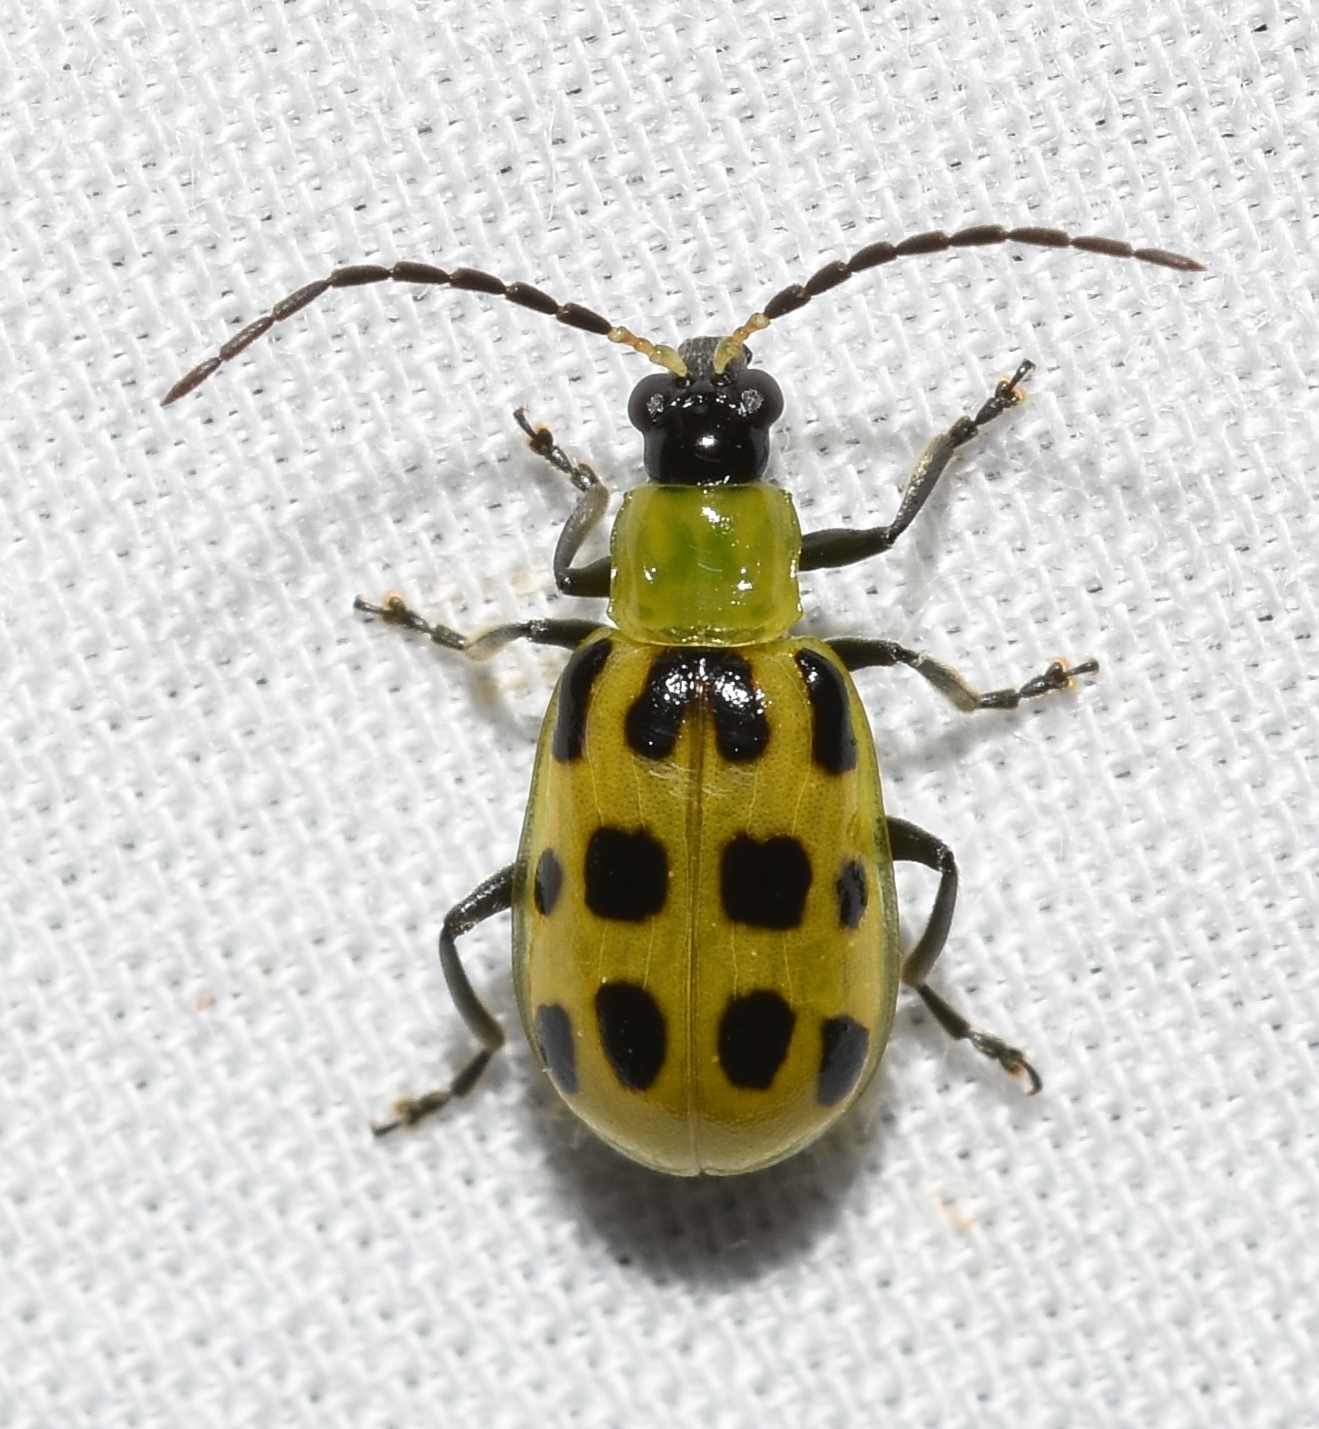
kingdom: Animalia
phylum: Arthropoda
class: Insecta
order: Coleoptera
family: Chrysomelidae
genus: Diabrotica
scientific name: Diabrotica undecimpunctata
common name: Spotted cucumber beetle
